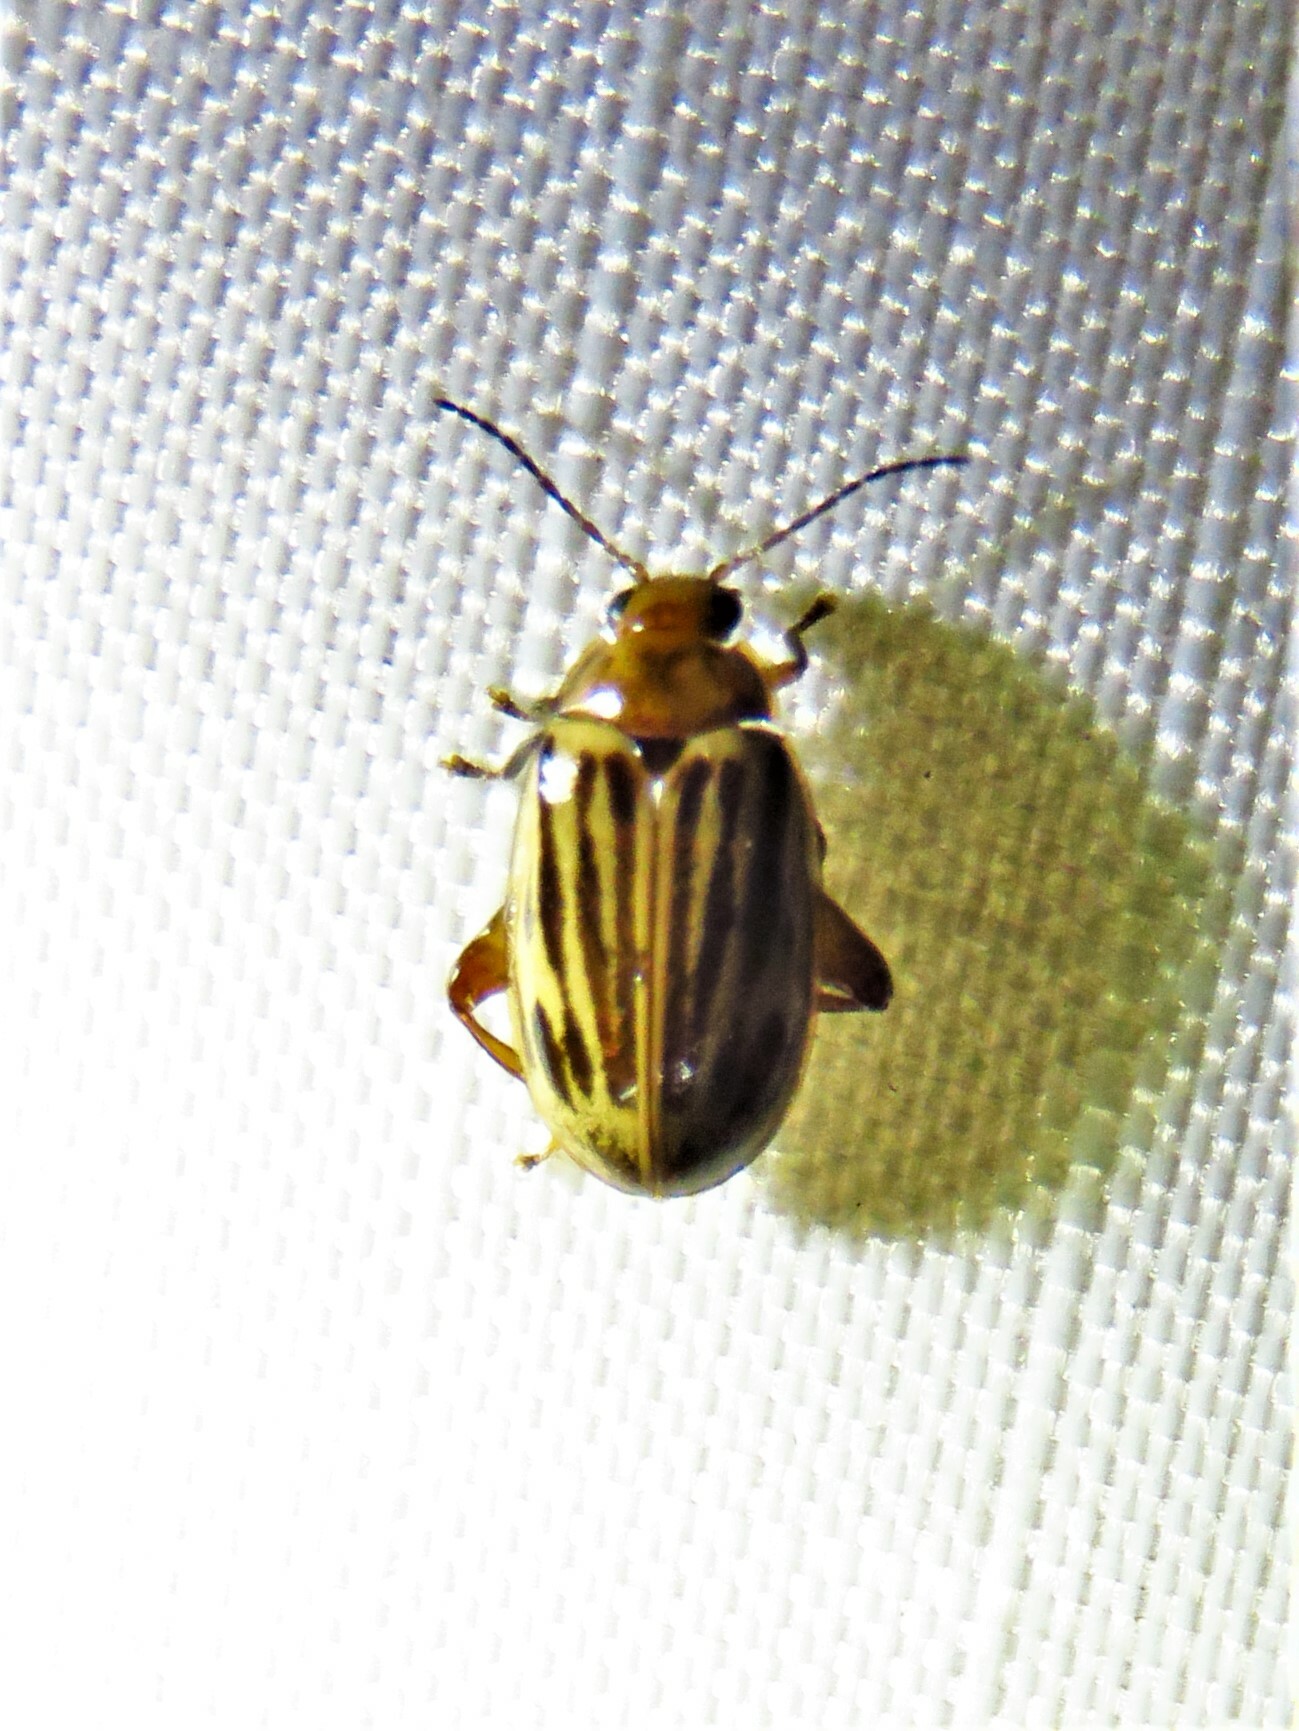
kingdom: Animalia
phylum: Arthropoda
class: Insecta
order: Coleoptera
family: Scirtidae
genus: Ora
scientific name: Ora troberti
